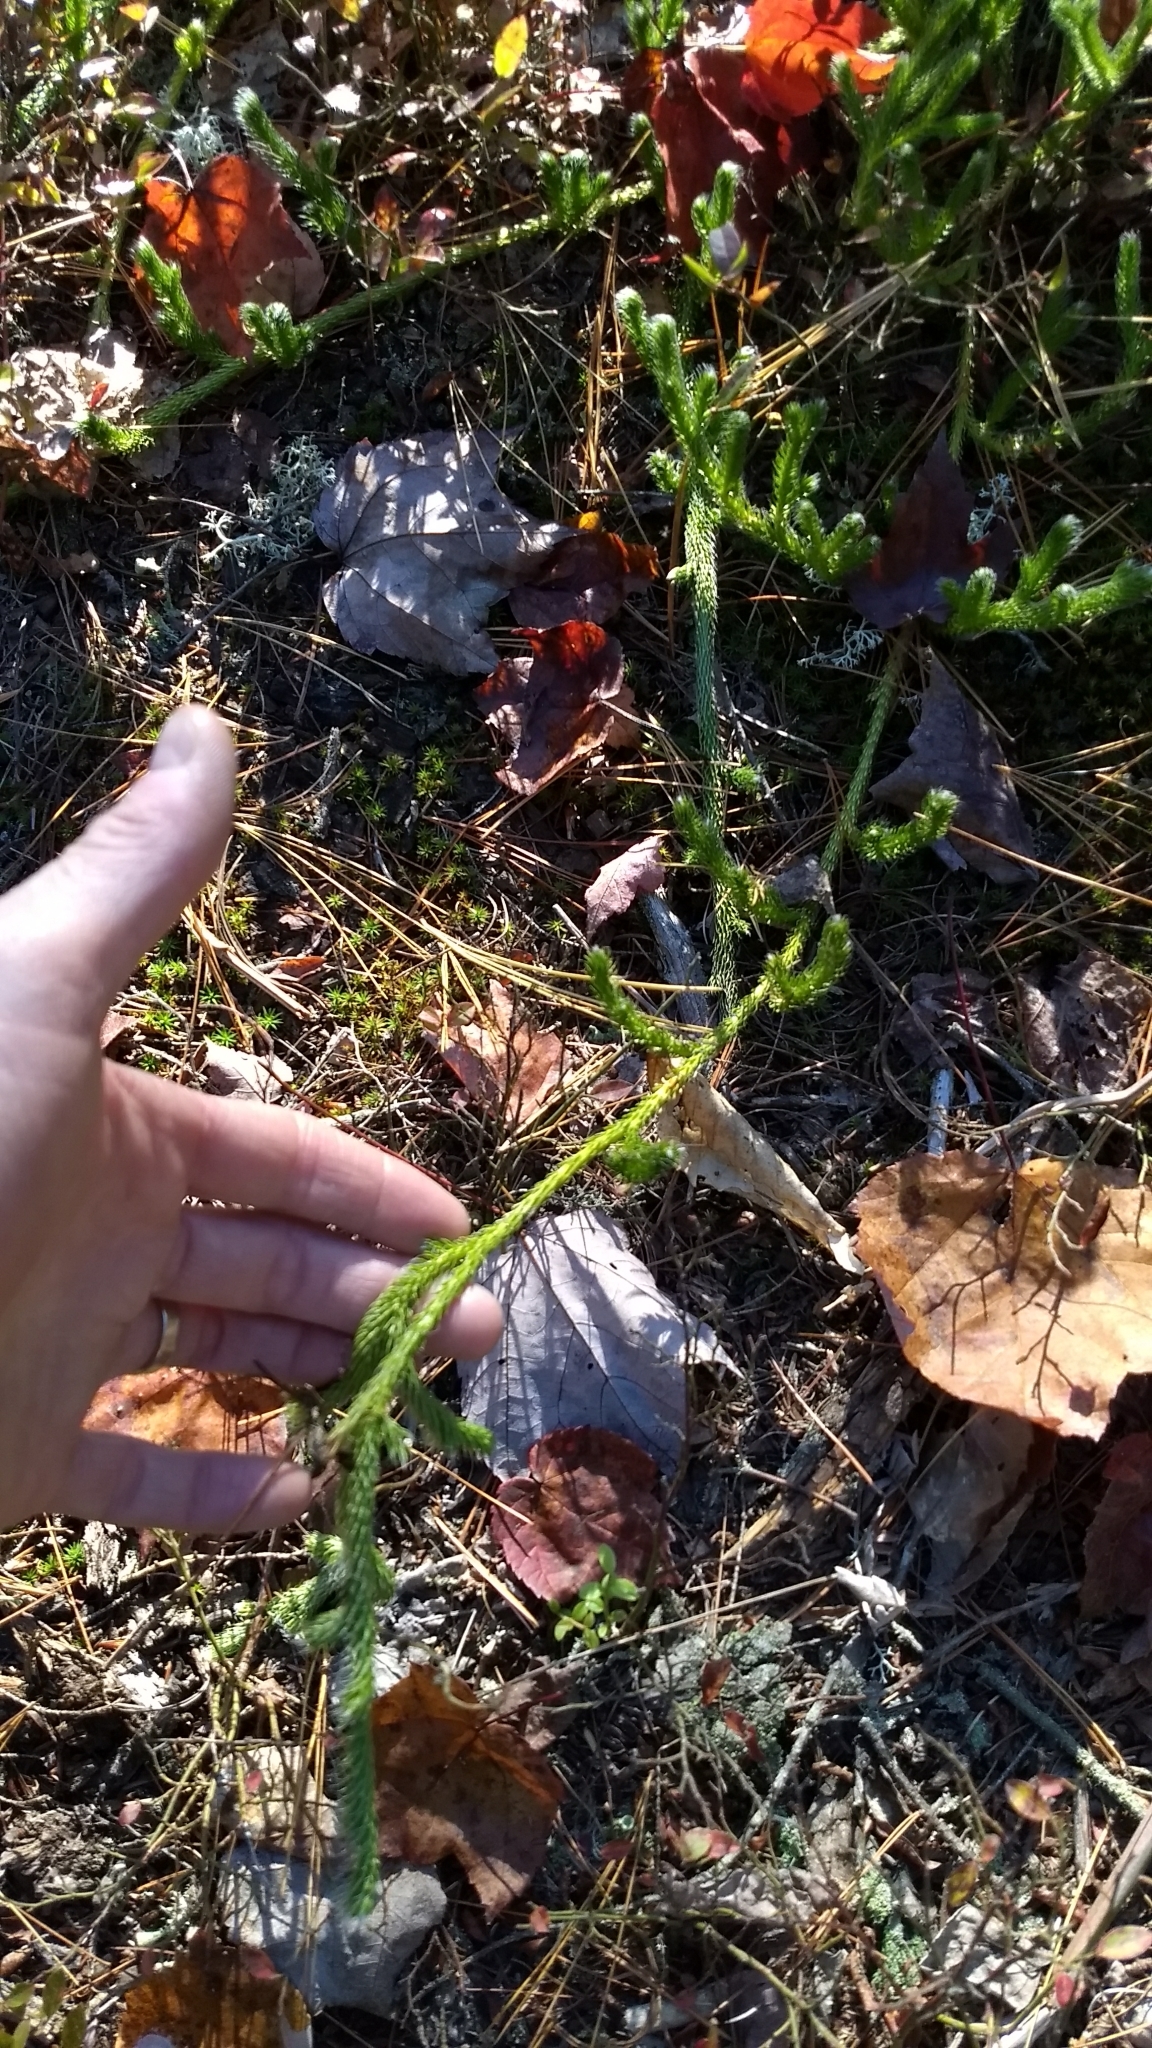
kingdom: Plantae
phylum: Tracheophyta
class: Lycopodiopsida
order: Lycopodiales
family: Lycopodiaceae
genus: Lycopodium
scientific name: Lycopodium clavatum
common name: Stag's-horn clubmoss
